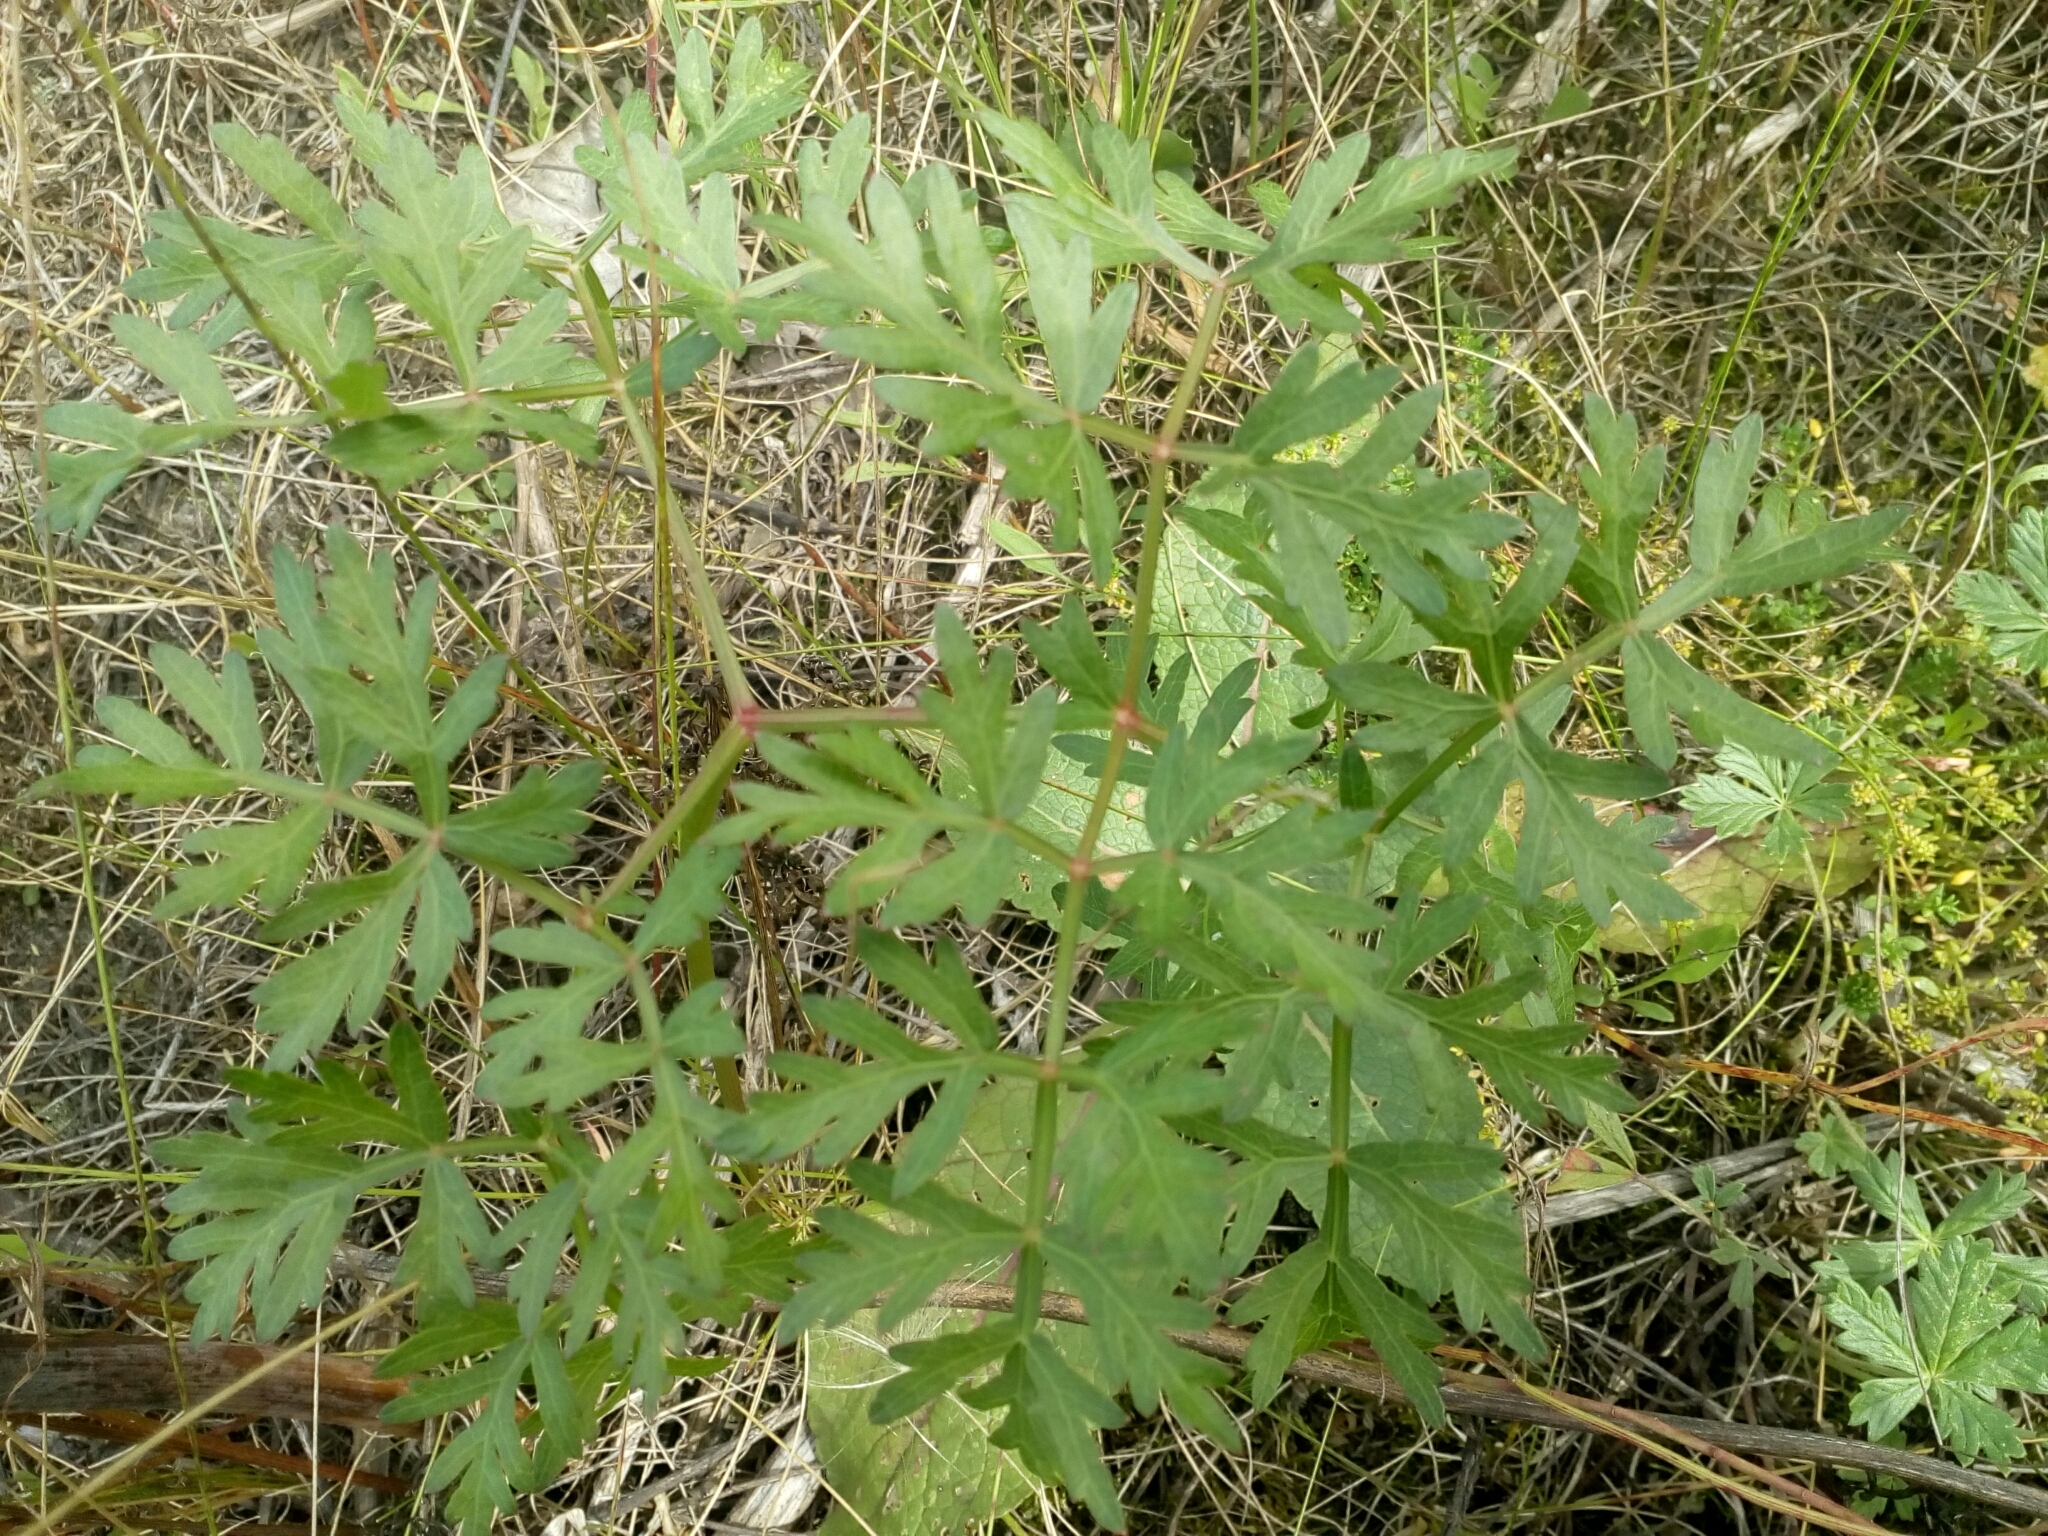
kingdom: Plantae
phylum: Tracheophyta
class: Magnoliopsida
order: Apiales
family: Apiaceae
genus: Oreoselinum
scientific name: Oreoselinum nigrum
